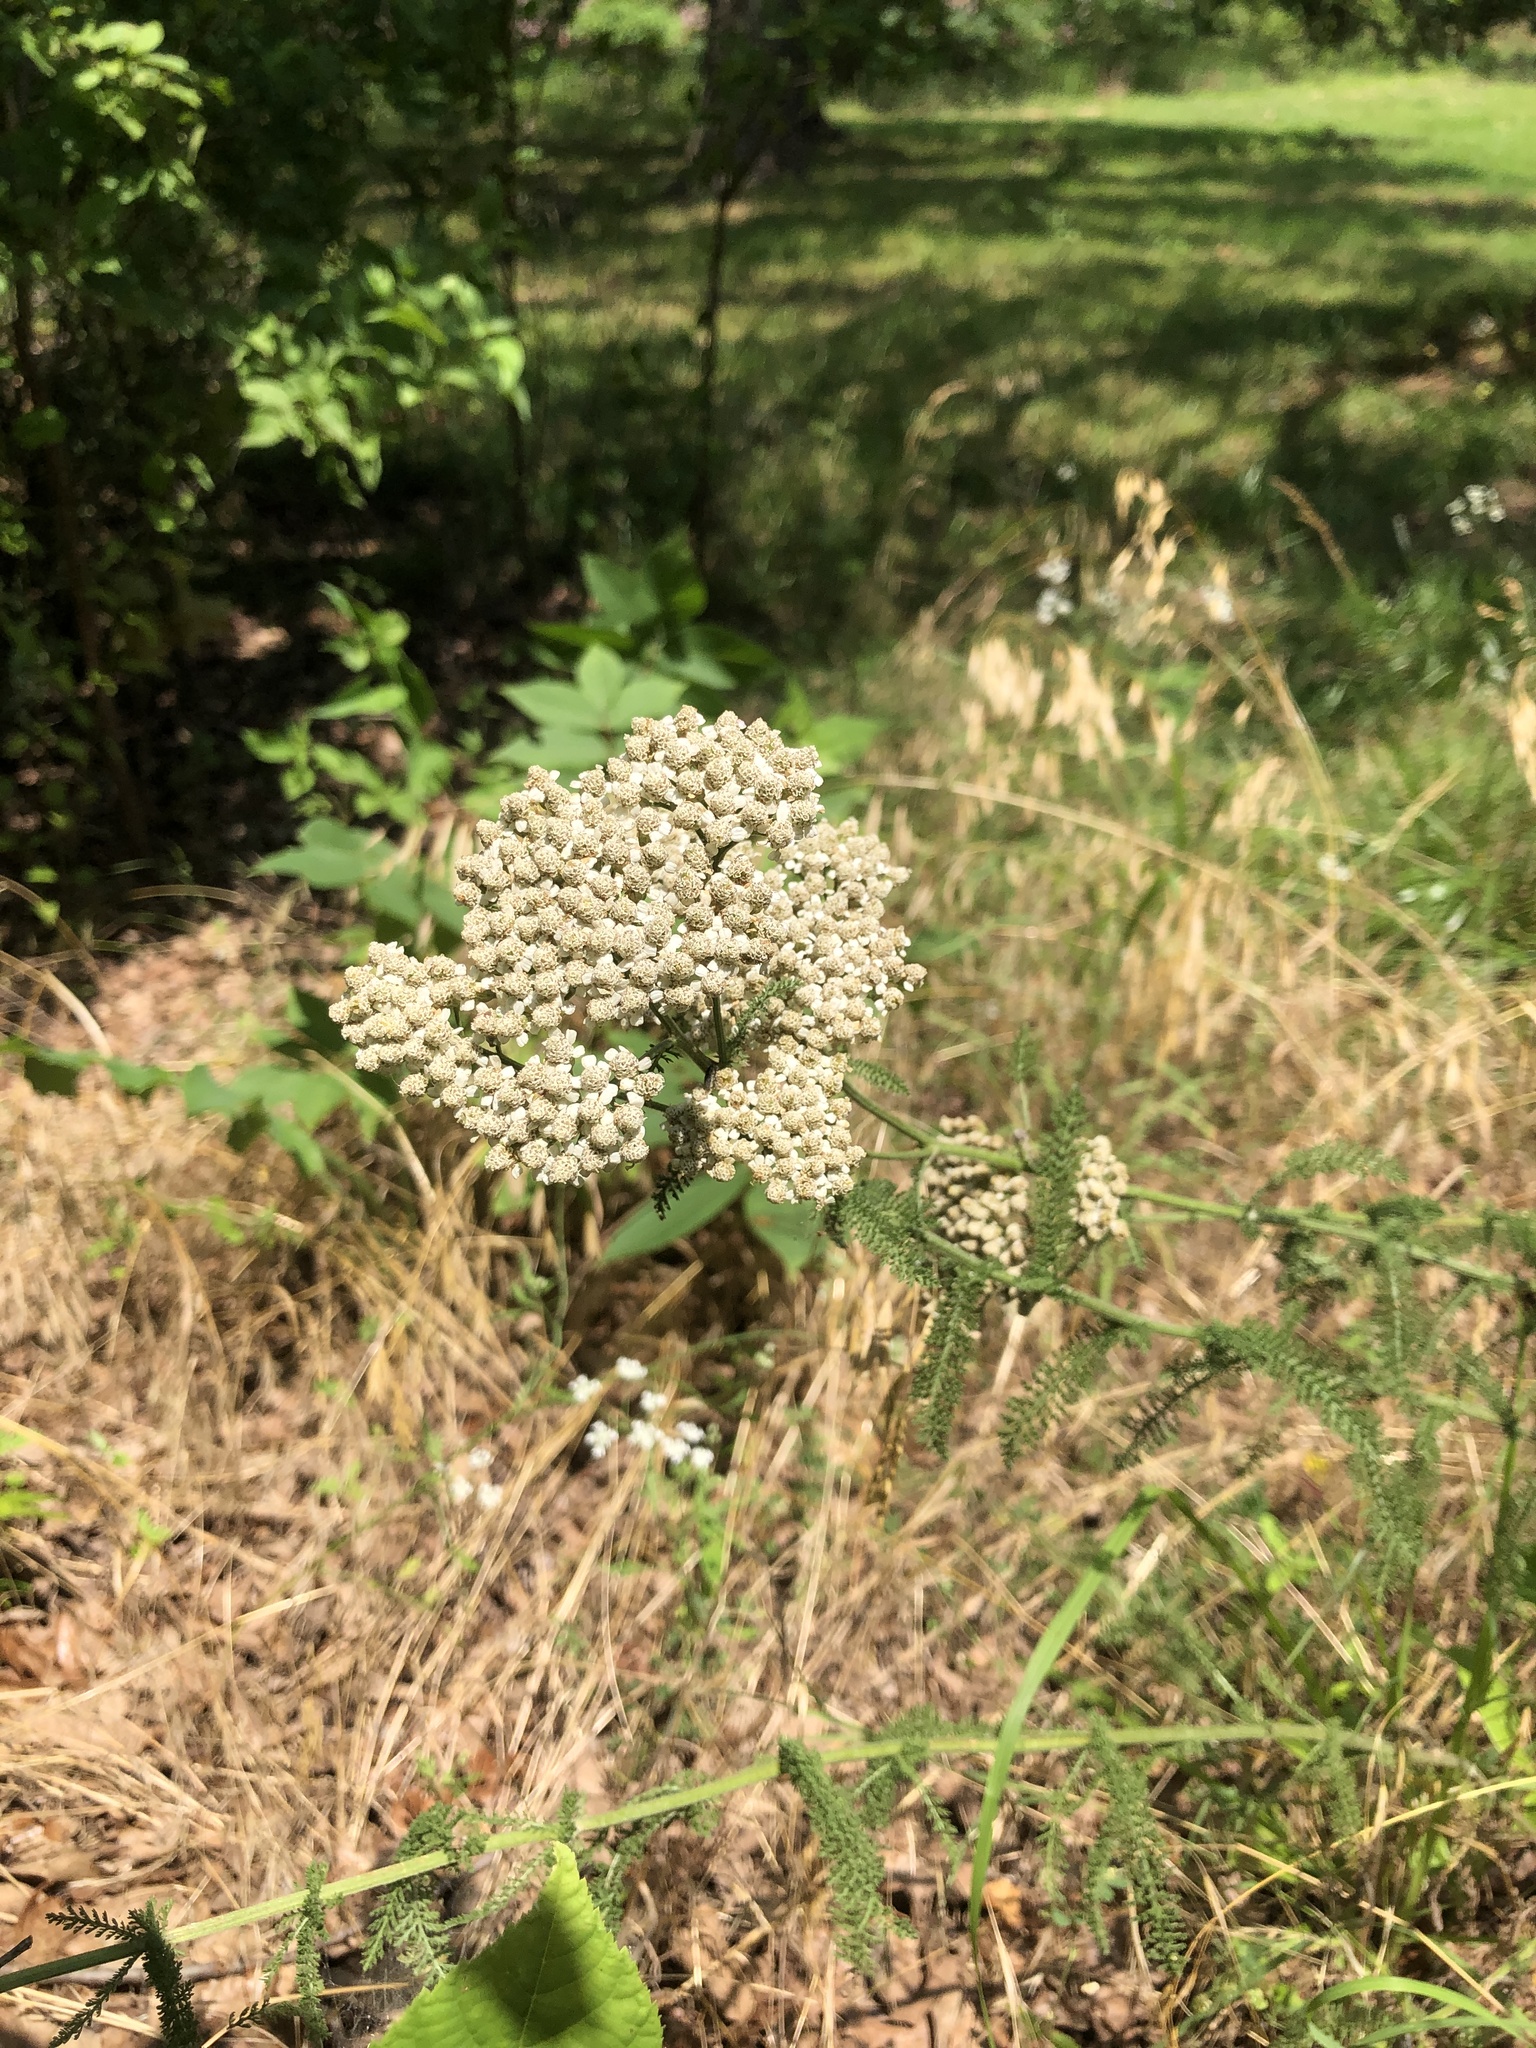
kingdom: Plantae
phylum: Tracheophyta
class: Magnoliopsida
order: Asterales
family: Asteraceae
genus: Achillea
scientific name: Achillea millefolium
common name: Yarrow
